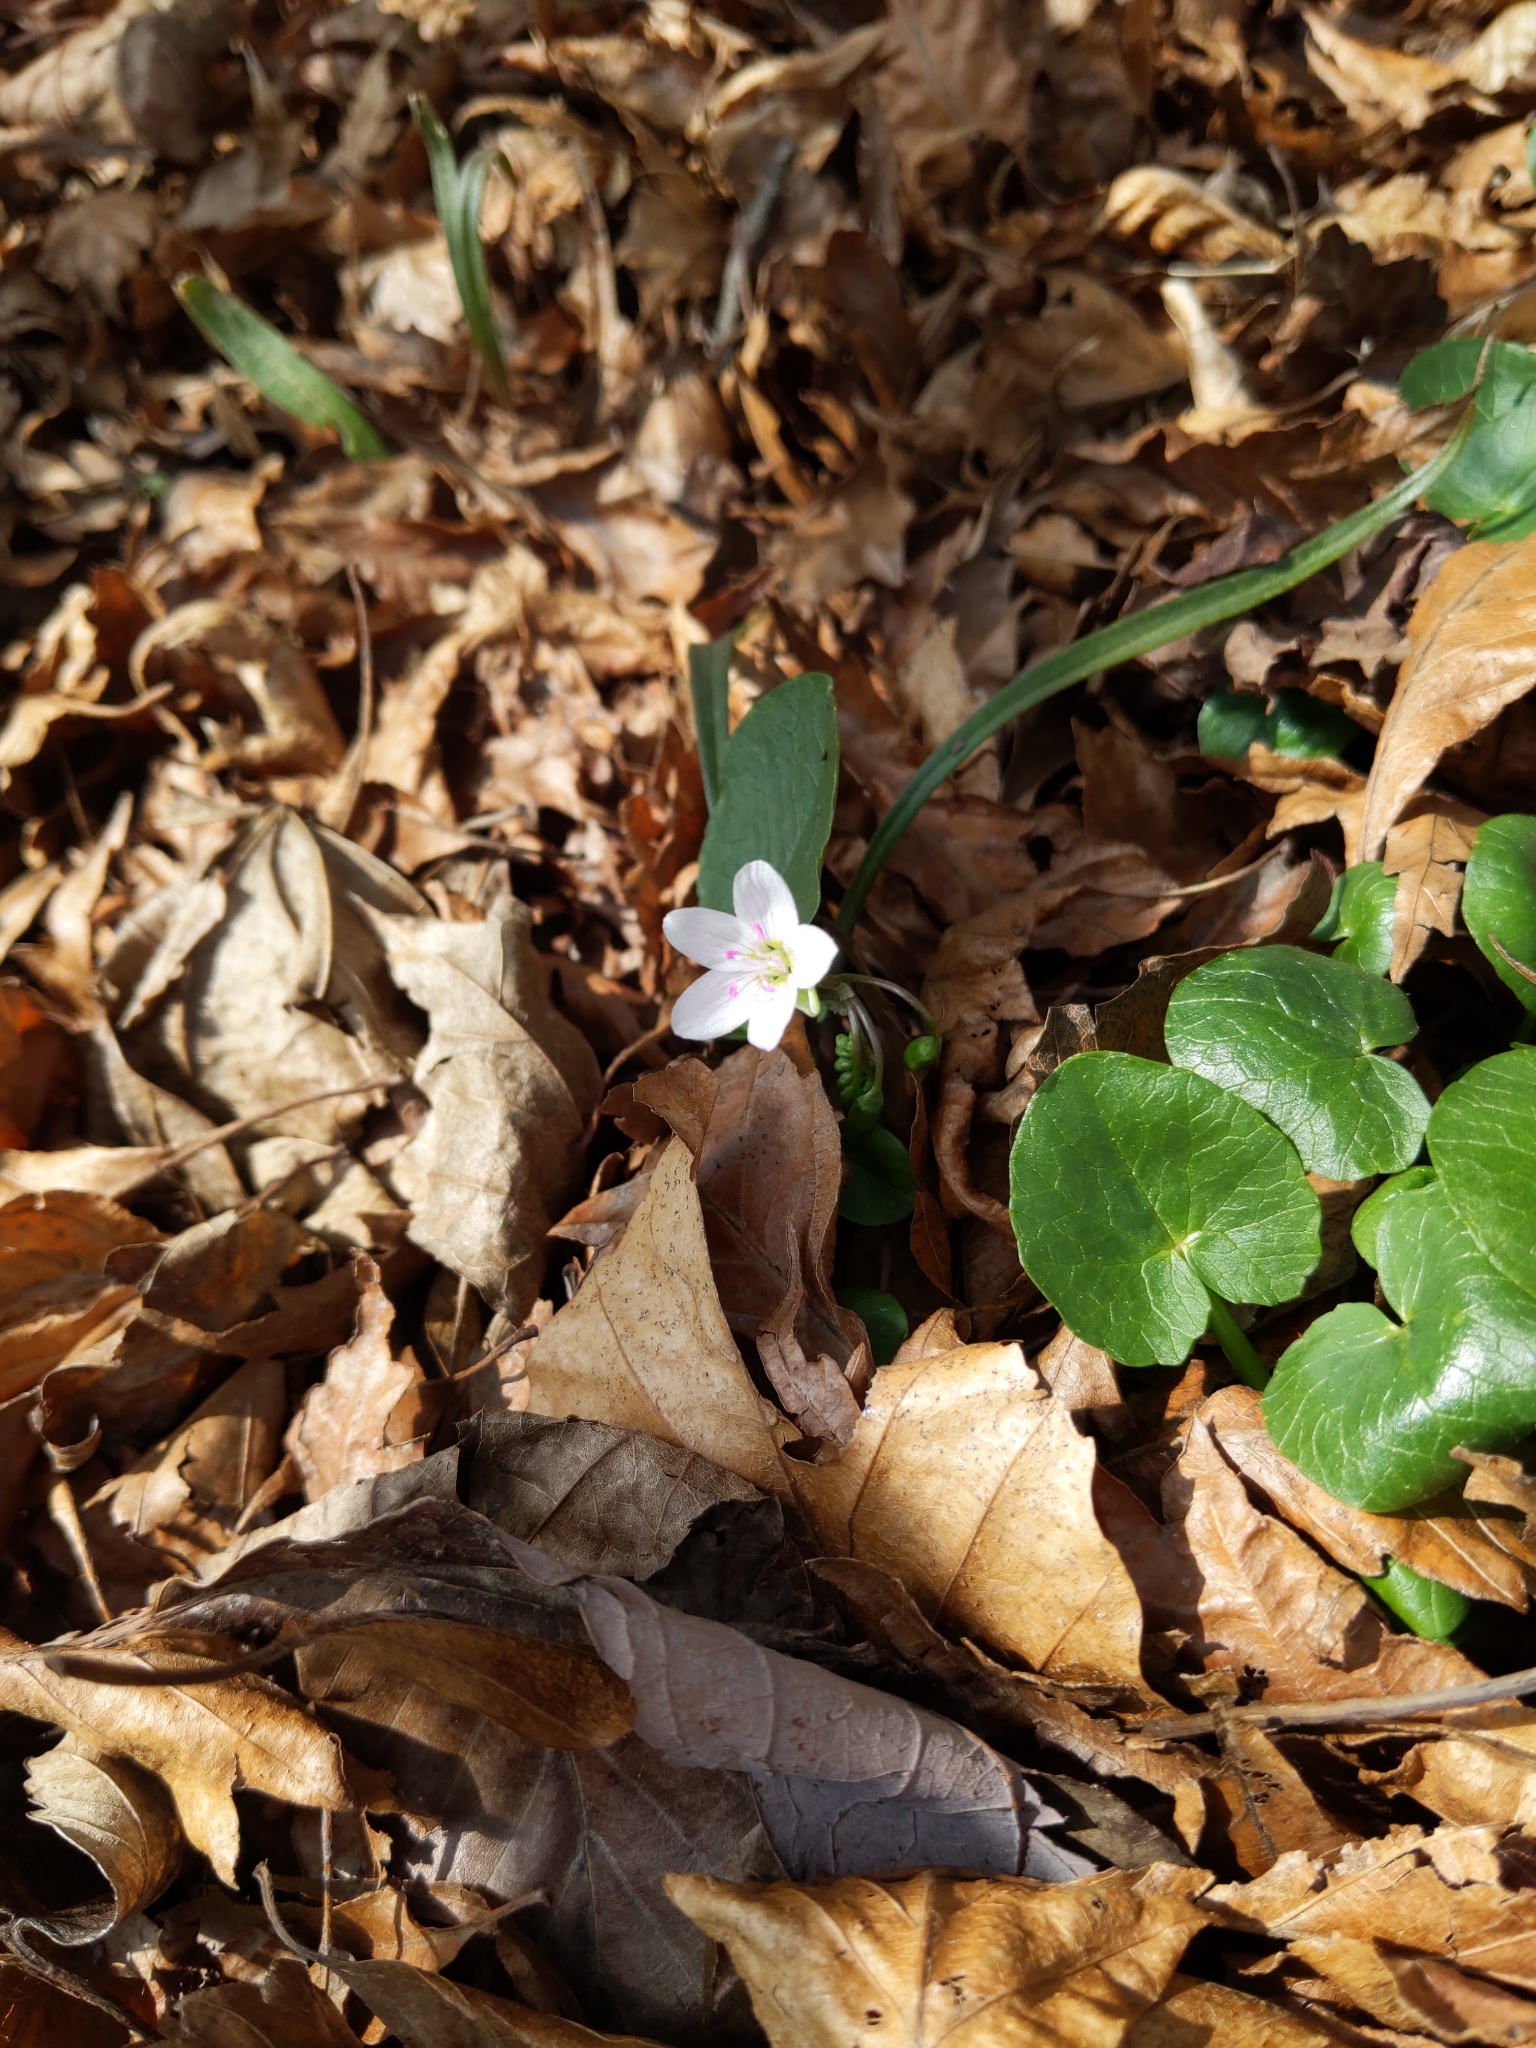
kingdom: Plantae
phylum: Tracheophyta
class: Magnoliopsida
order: Caryophyllales
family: Montiaceae
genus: Claytonia
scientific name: Claytonia virginica
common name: Virginia springbeauty
